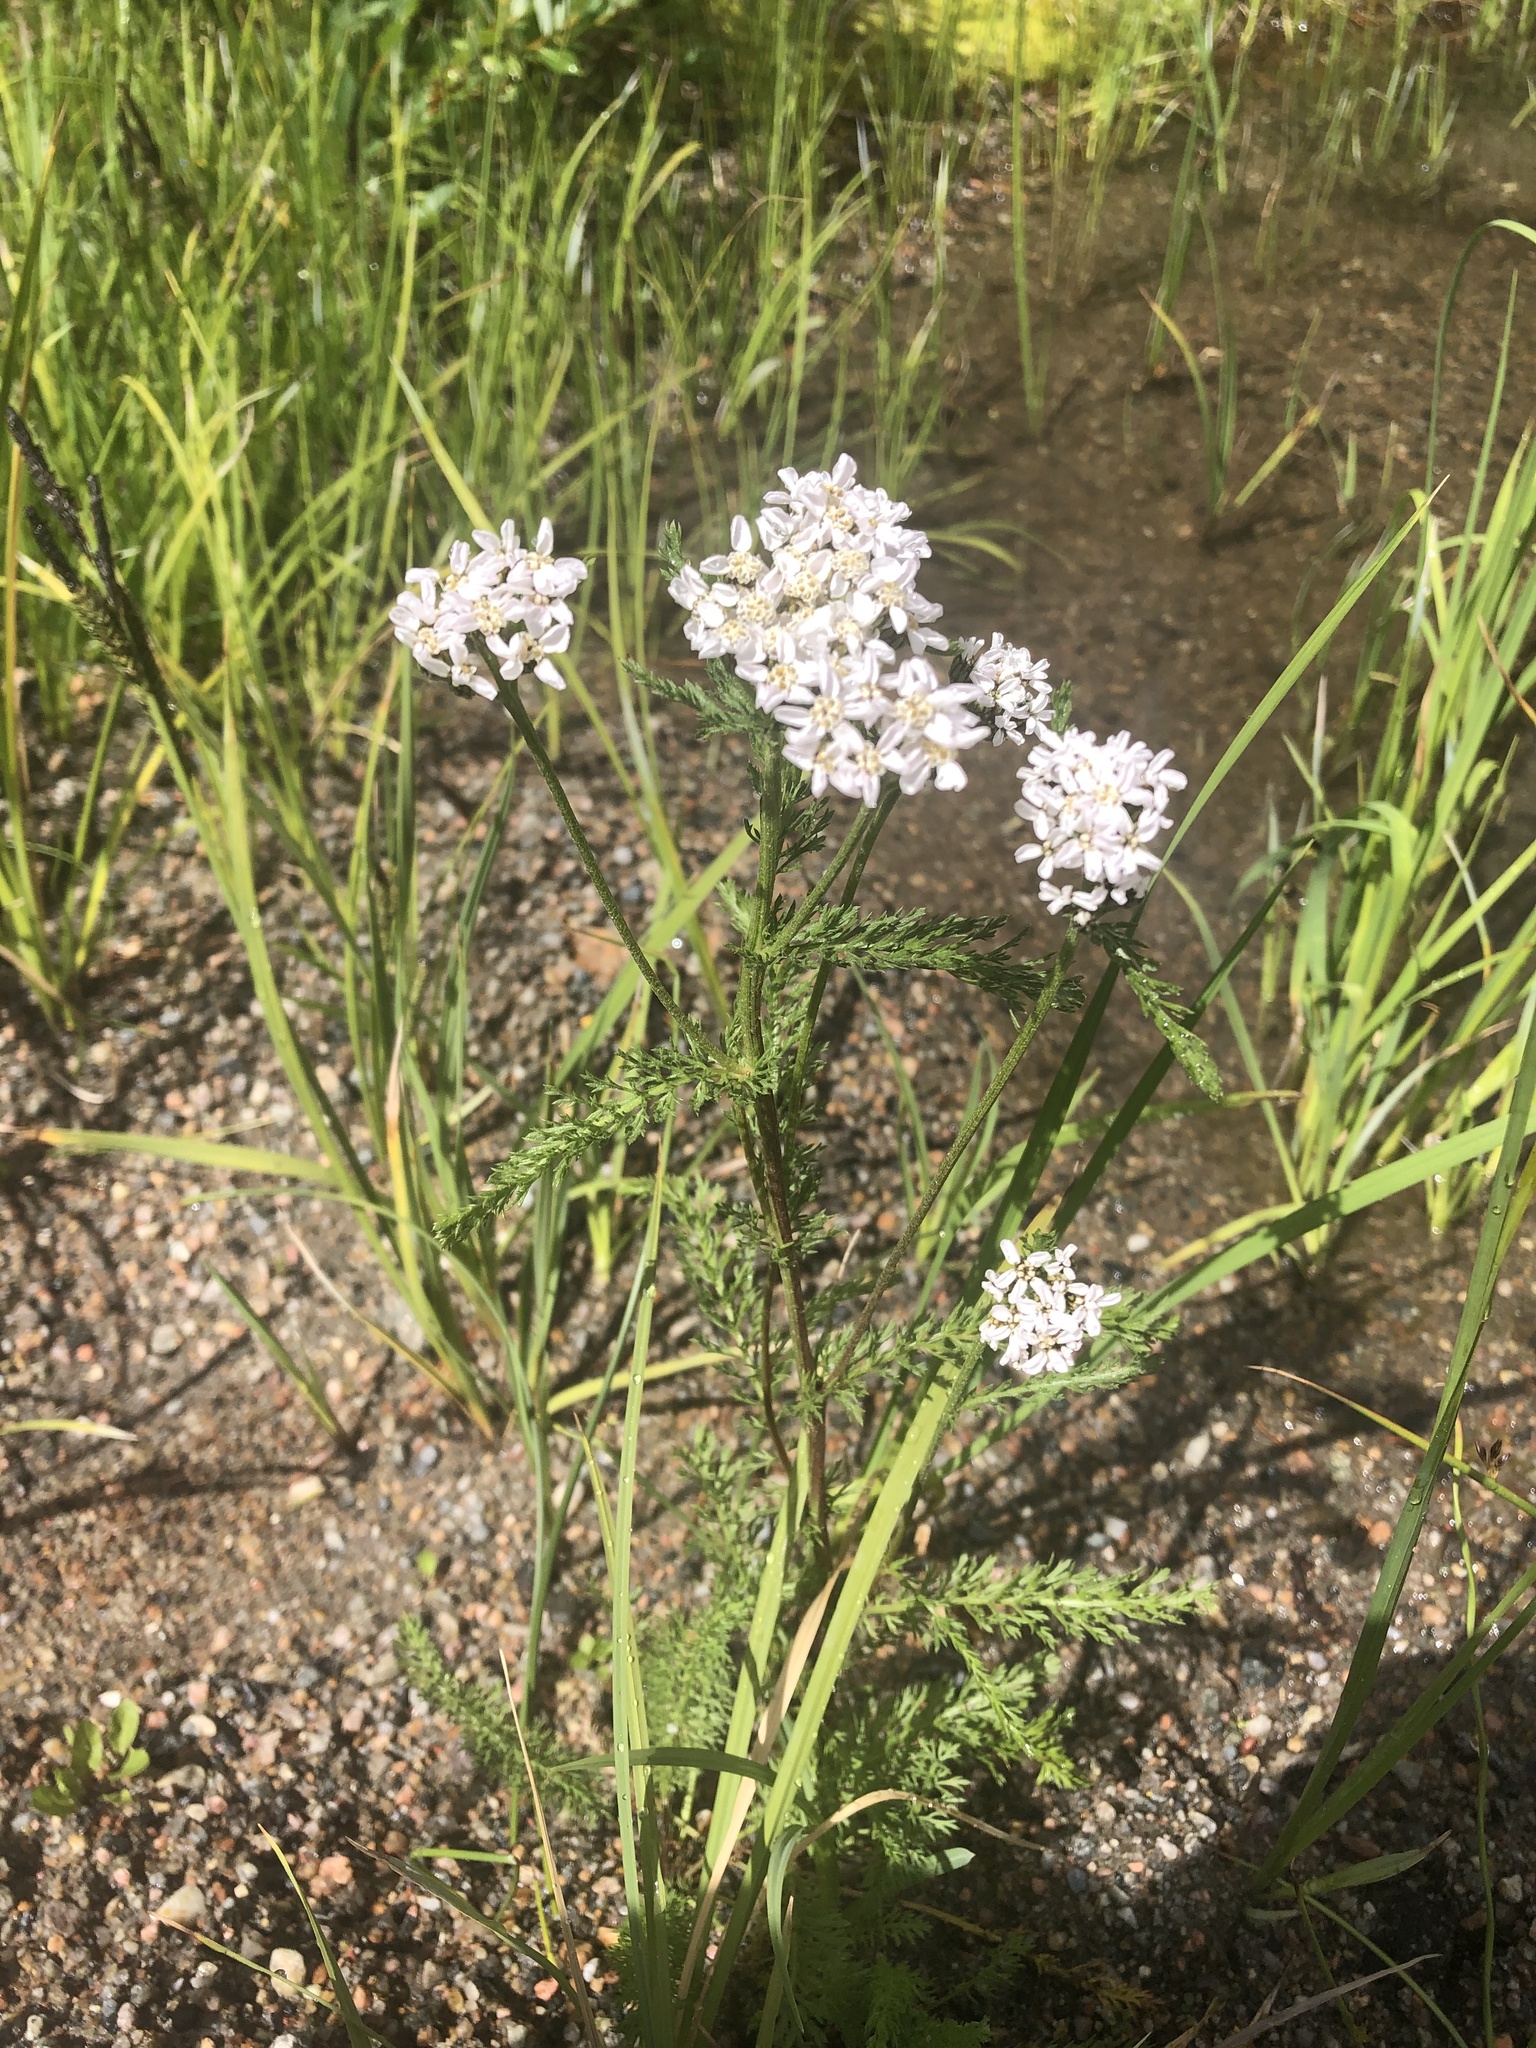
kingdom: Plantae
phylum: Tracheophyta
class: Magnoliopsida
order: Asterales
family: Asteraceae
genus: Achillea
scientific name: Achillea millefolium
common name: Yarrow
